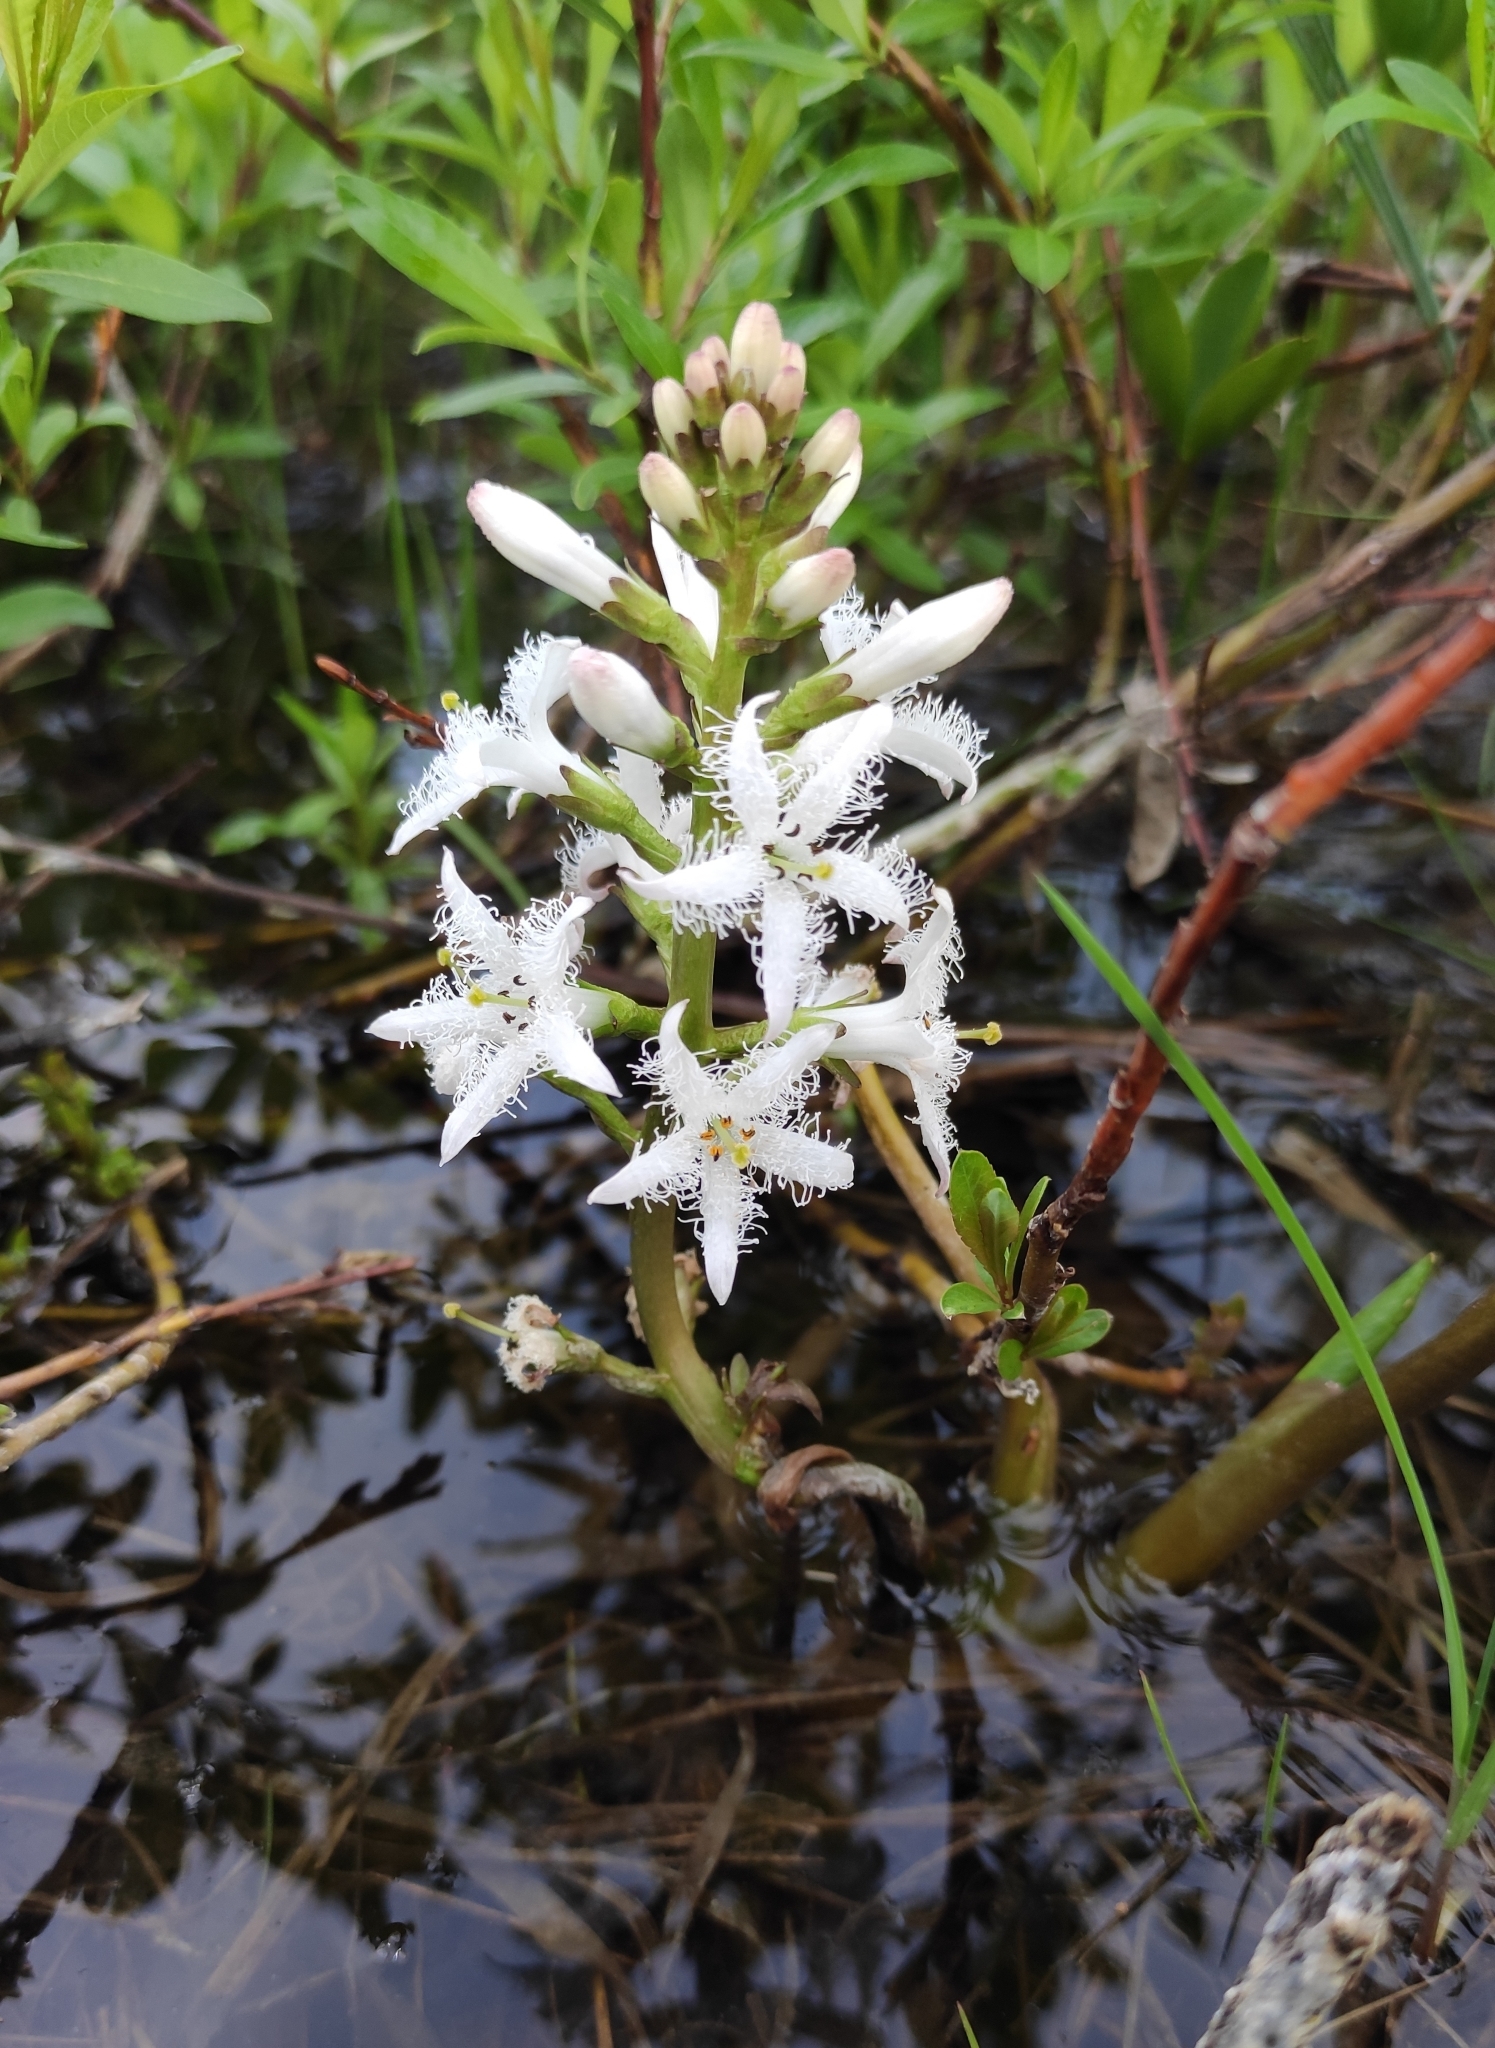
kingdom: Plantae
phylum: Tracheophyta
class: Magnoliopsida
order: Asterales
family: Menyanthaceae
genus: Menyanthes
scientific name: Menyanthes trifoliata
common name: Bogbean
